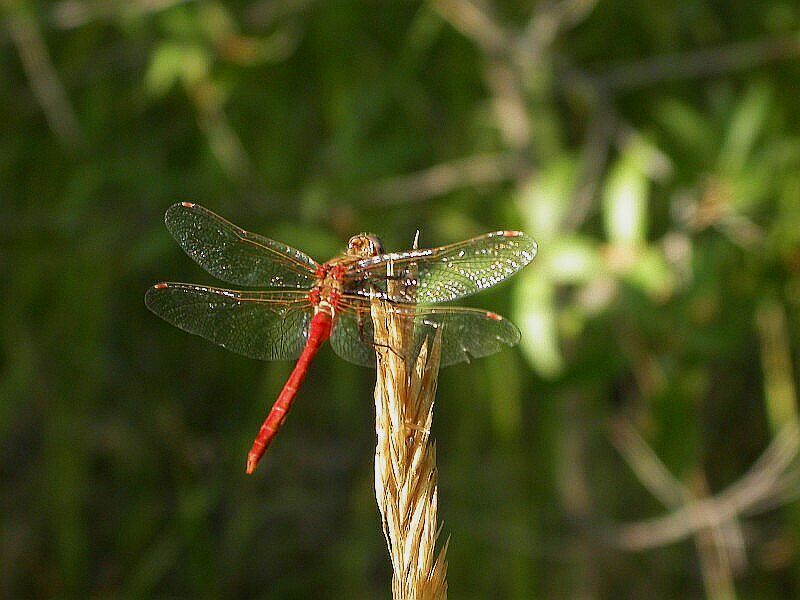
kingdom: Animalia
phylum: Arthropoda
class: Insecta
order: Odonata
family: Libellulidae
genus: Sympetrum
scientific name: Sympetrum pallipes
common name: Striped meadowhawk
